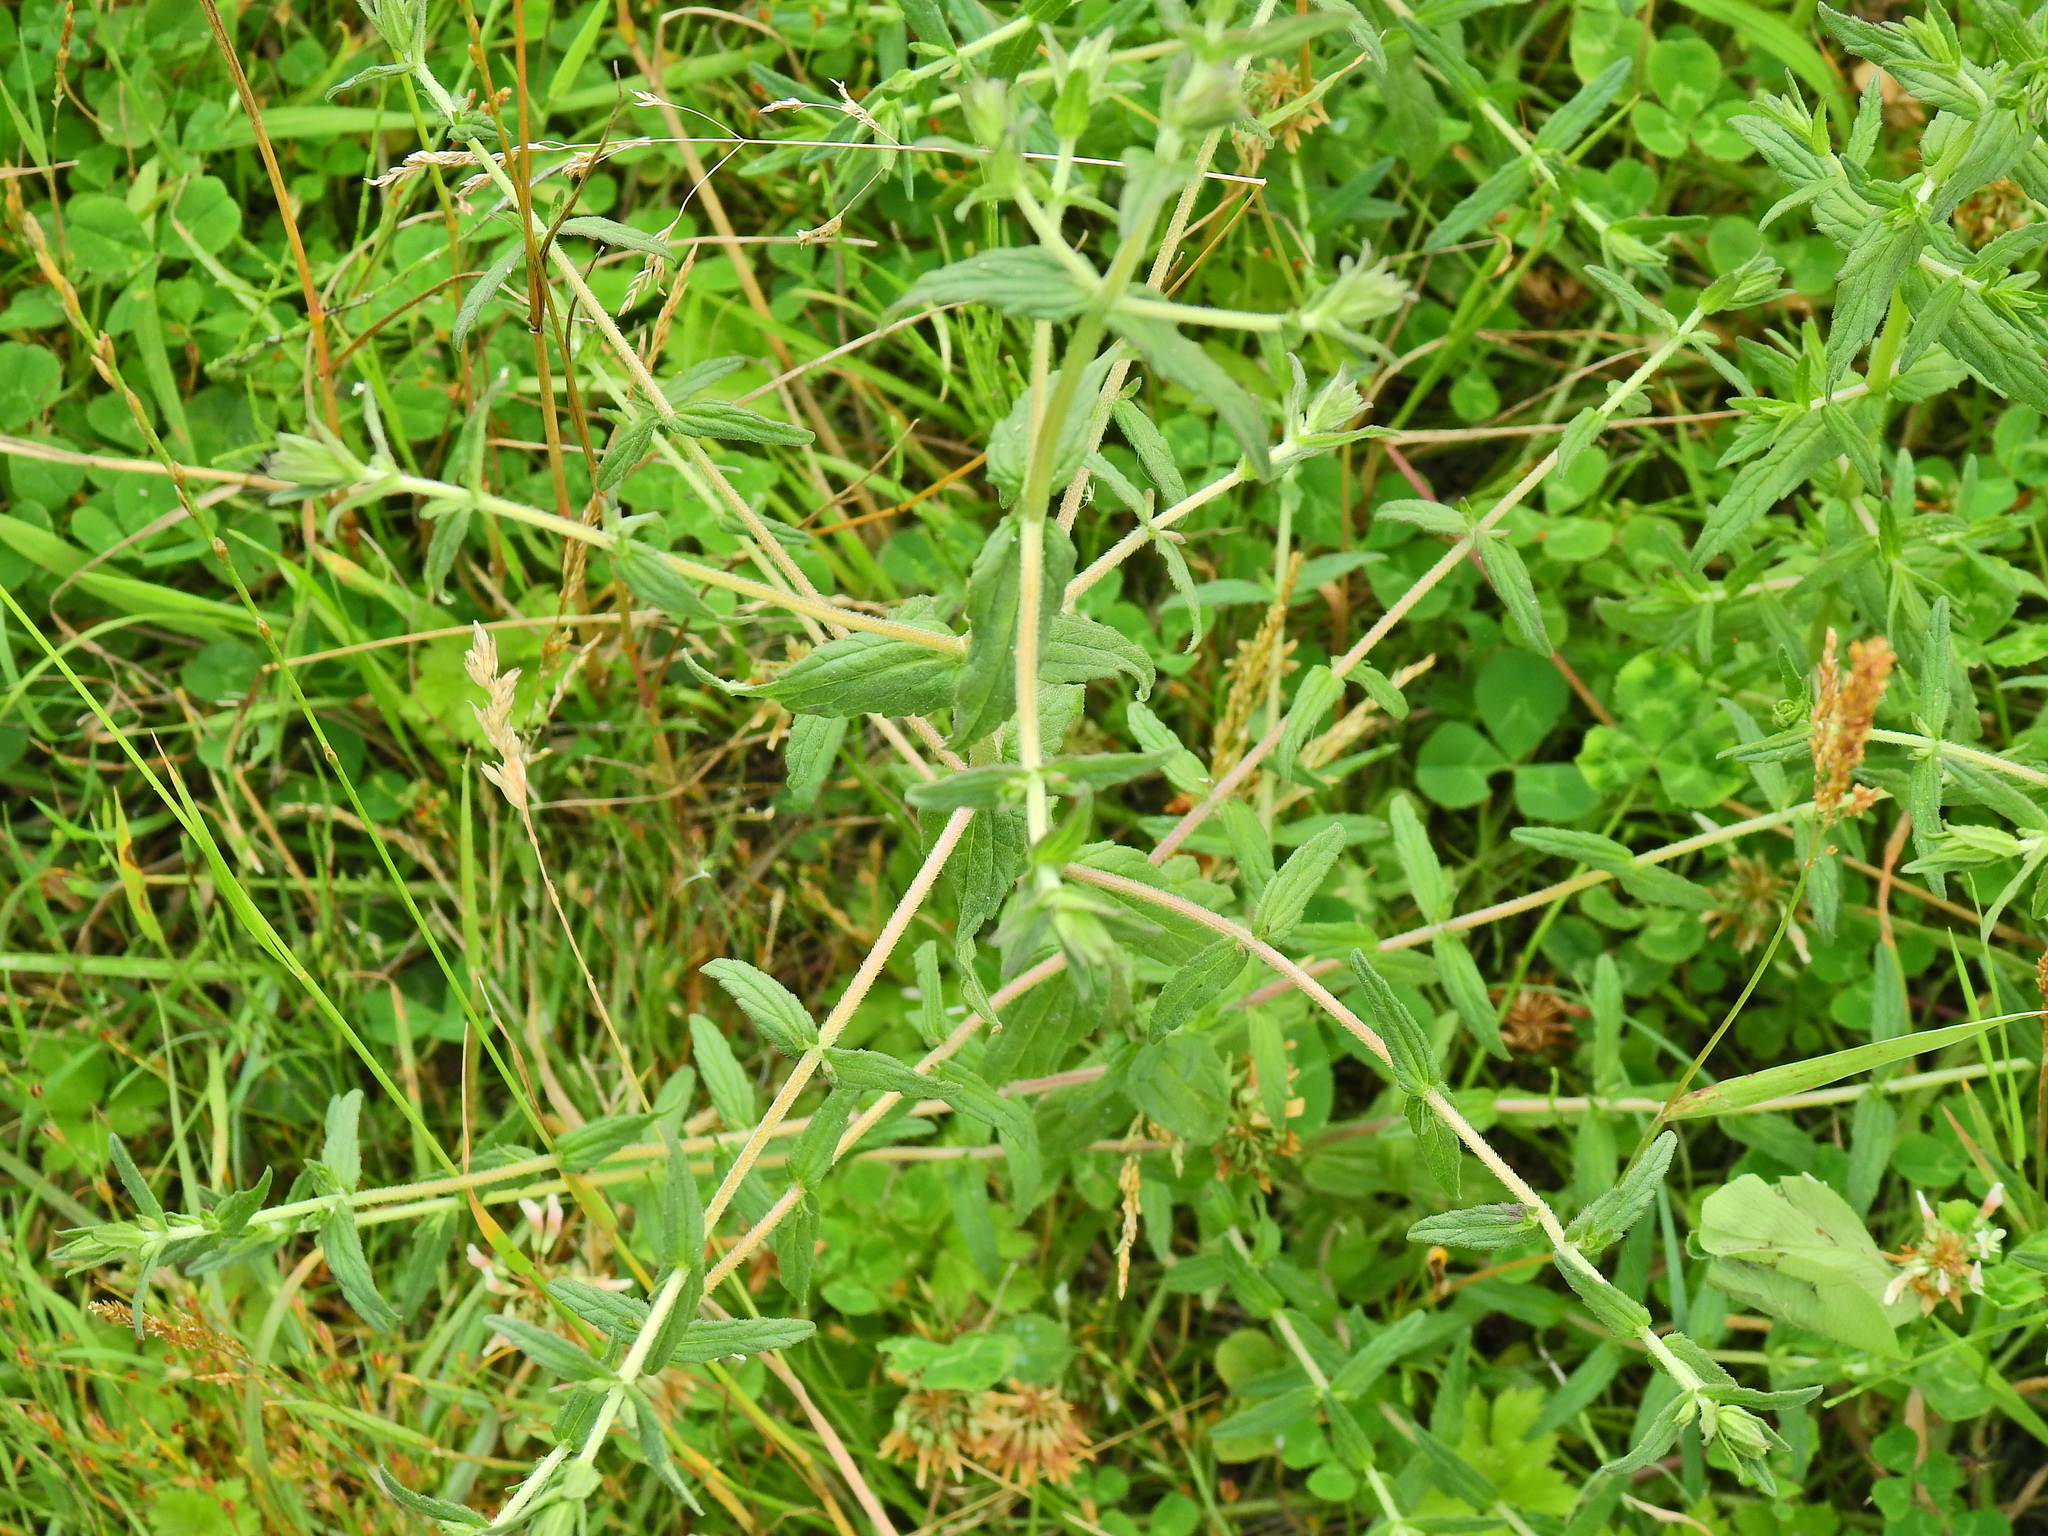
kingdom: Plantae
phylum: Tracheophyta
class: Magnoliopsida
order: Lamiales
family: Orobanchaceae
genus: Odontites
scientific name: Odontites vernus
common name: Red bartsia
